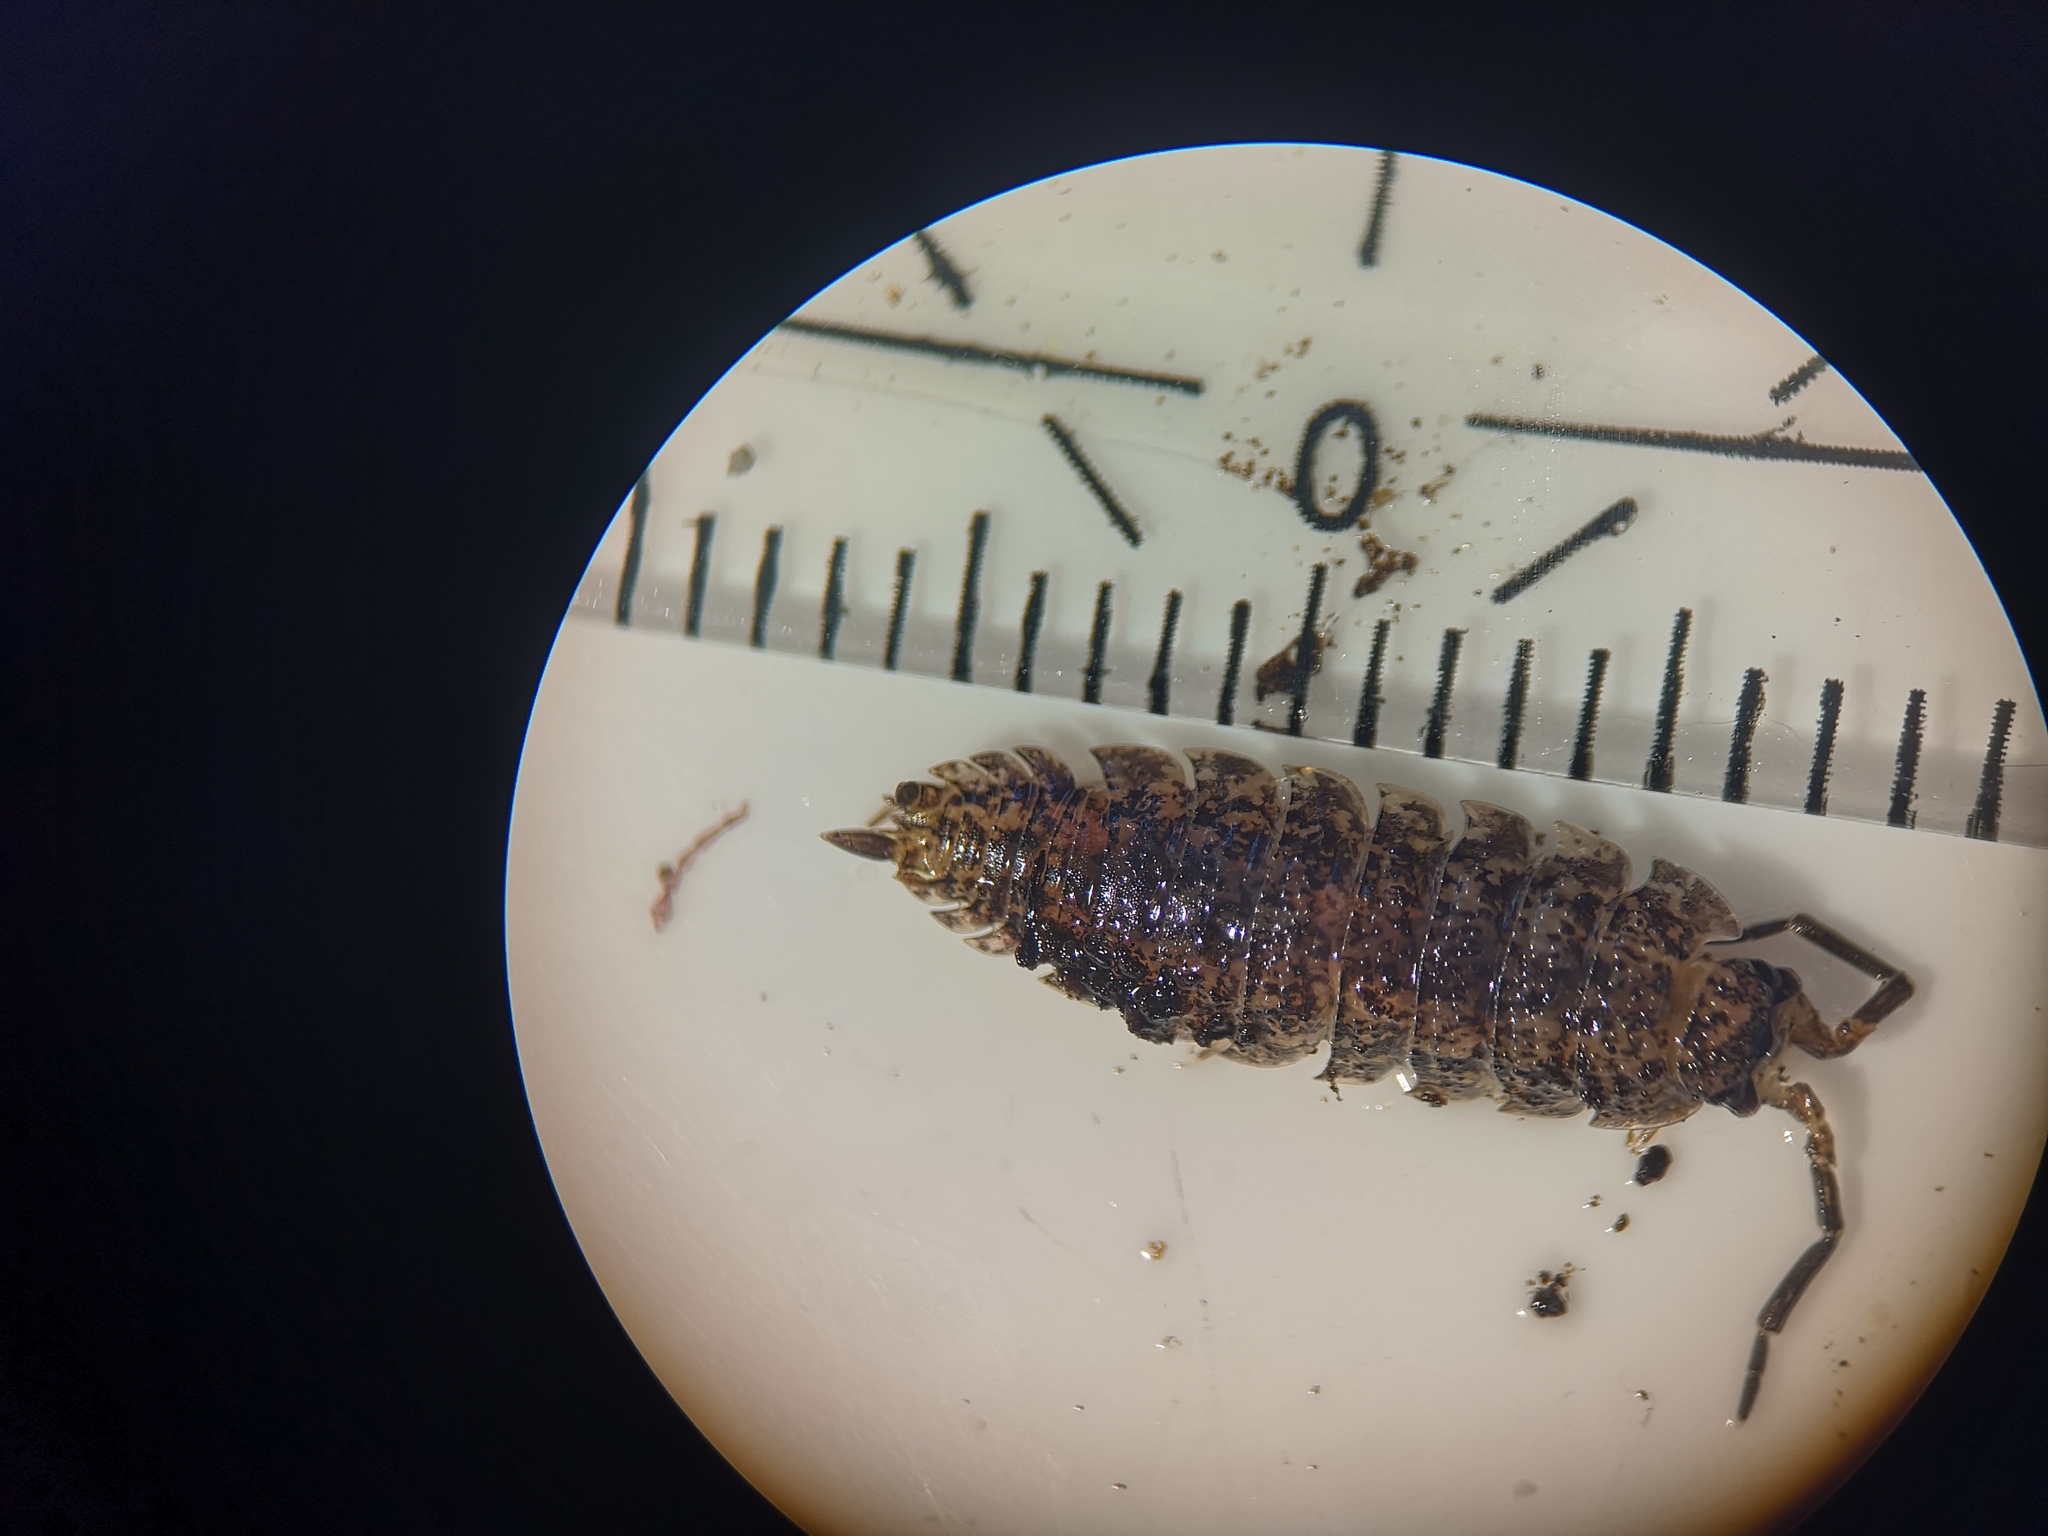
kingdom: Animalia
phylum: Arthropoda
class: Malacostraca
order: Isopoda
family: Porcellionidae
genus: Porcellio
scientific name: Porcellio scaber
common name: Common rough woodlouse
